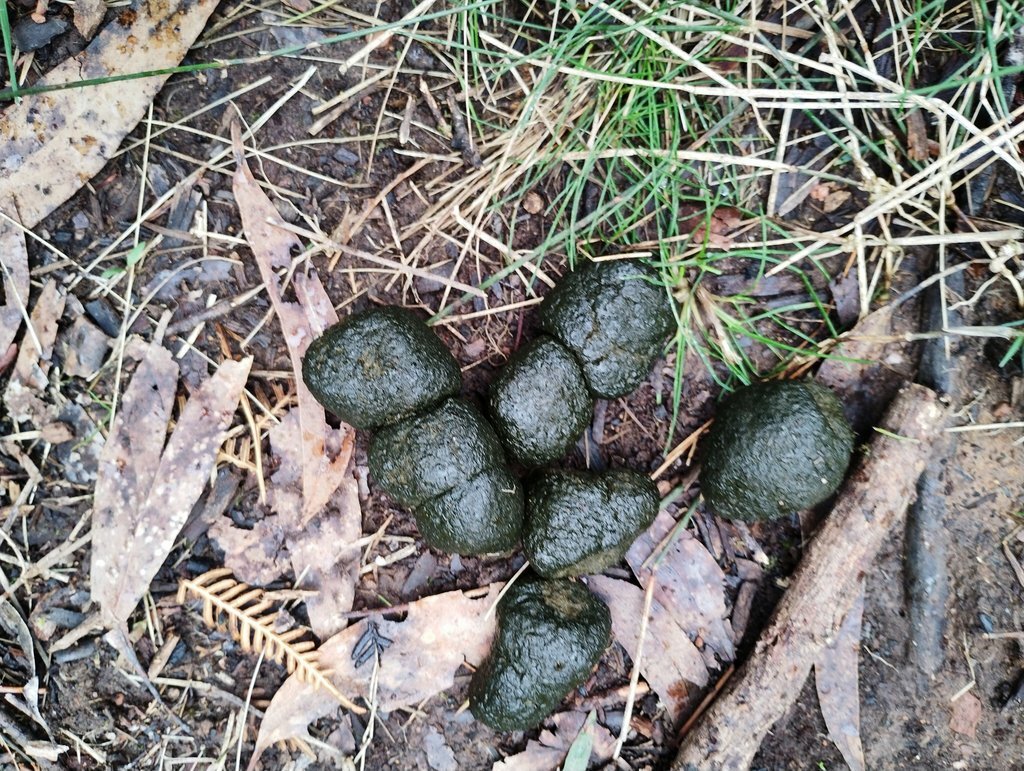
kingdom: Animalia
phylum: Chordata
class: Mammalia
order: Diprotodontia
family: Vombatidae
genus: Vombatus
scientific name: Vombatus ursinus
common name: Common wombat
